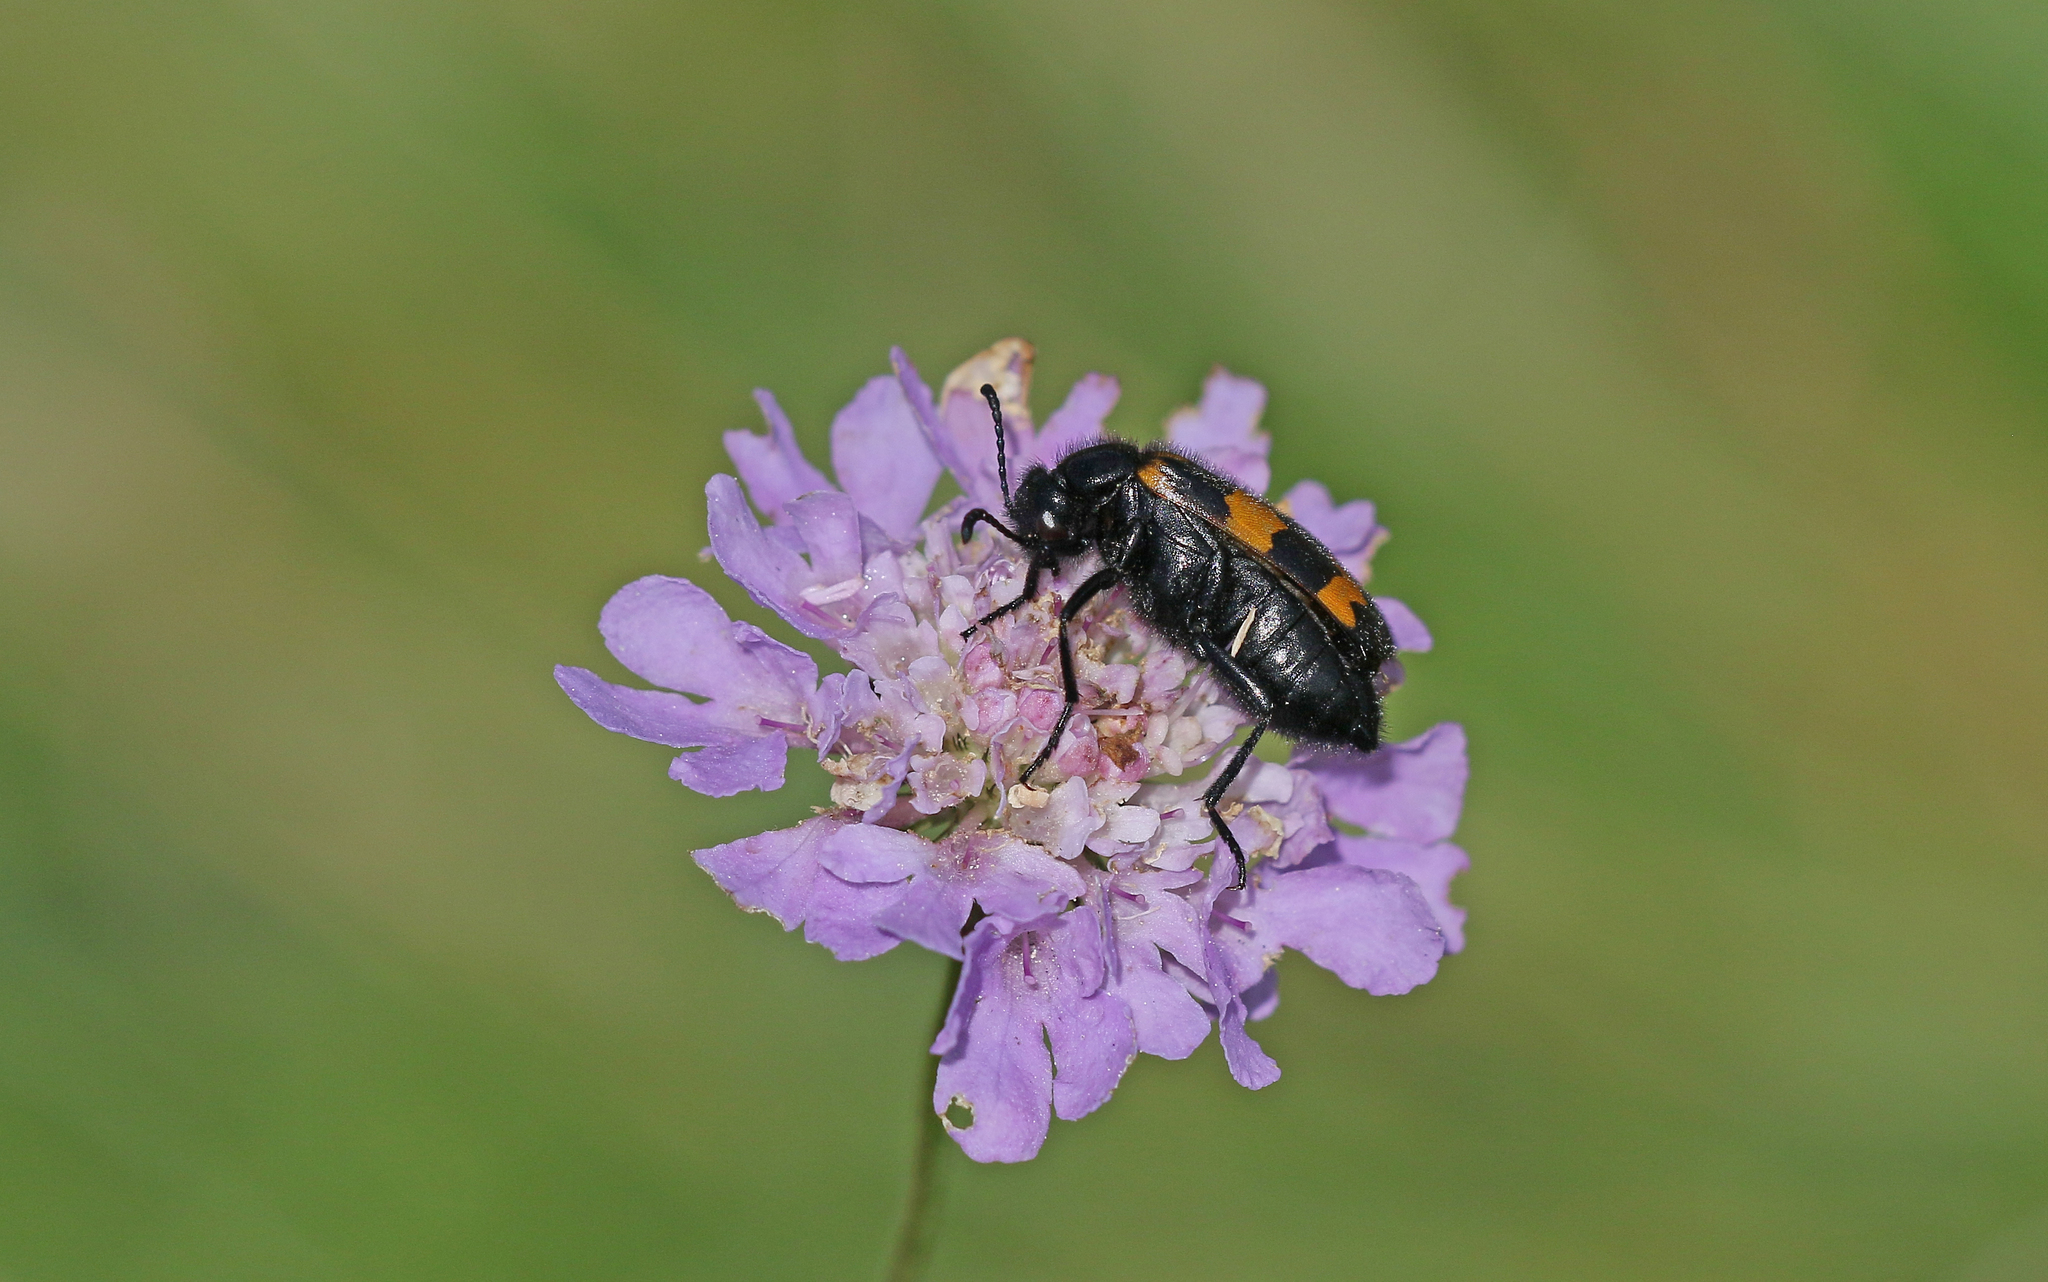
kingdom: Animalia
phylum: Arthropoda
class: Insecta
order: Coleoptera
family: Meloidae
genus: Mylabris
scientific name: Mylabris variabilis
